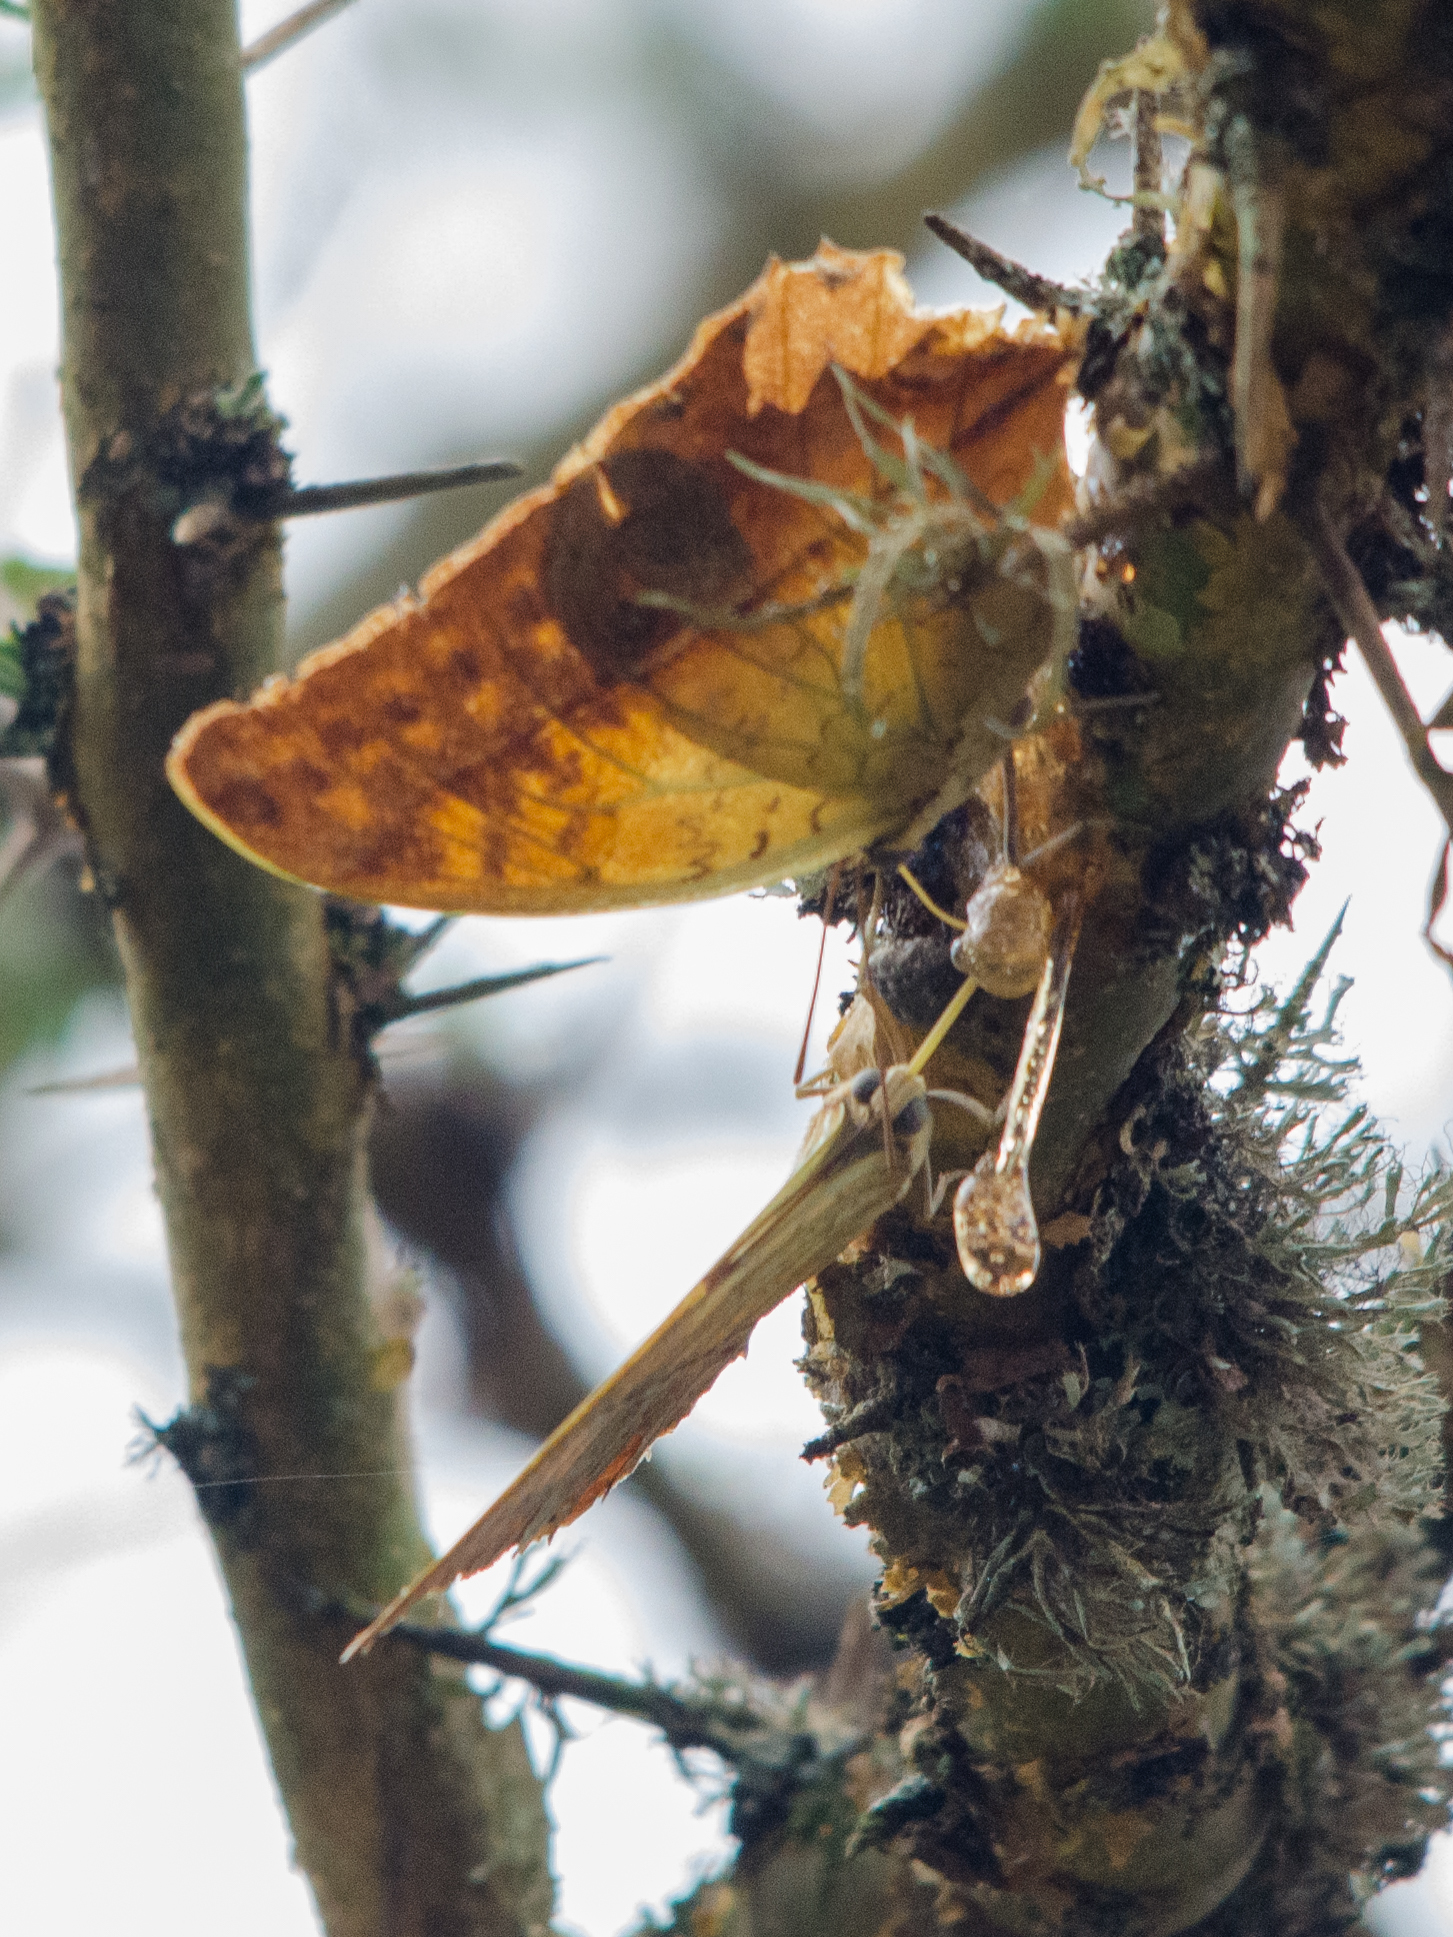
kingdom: Animalia
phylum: Arthropoda
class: Insecta
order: Lepidoptera
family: Nymphalidae
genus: Charaxes
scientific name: Charaxes varanes
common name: Common pearl charaxes
